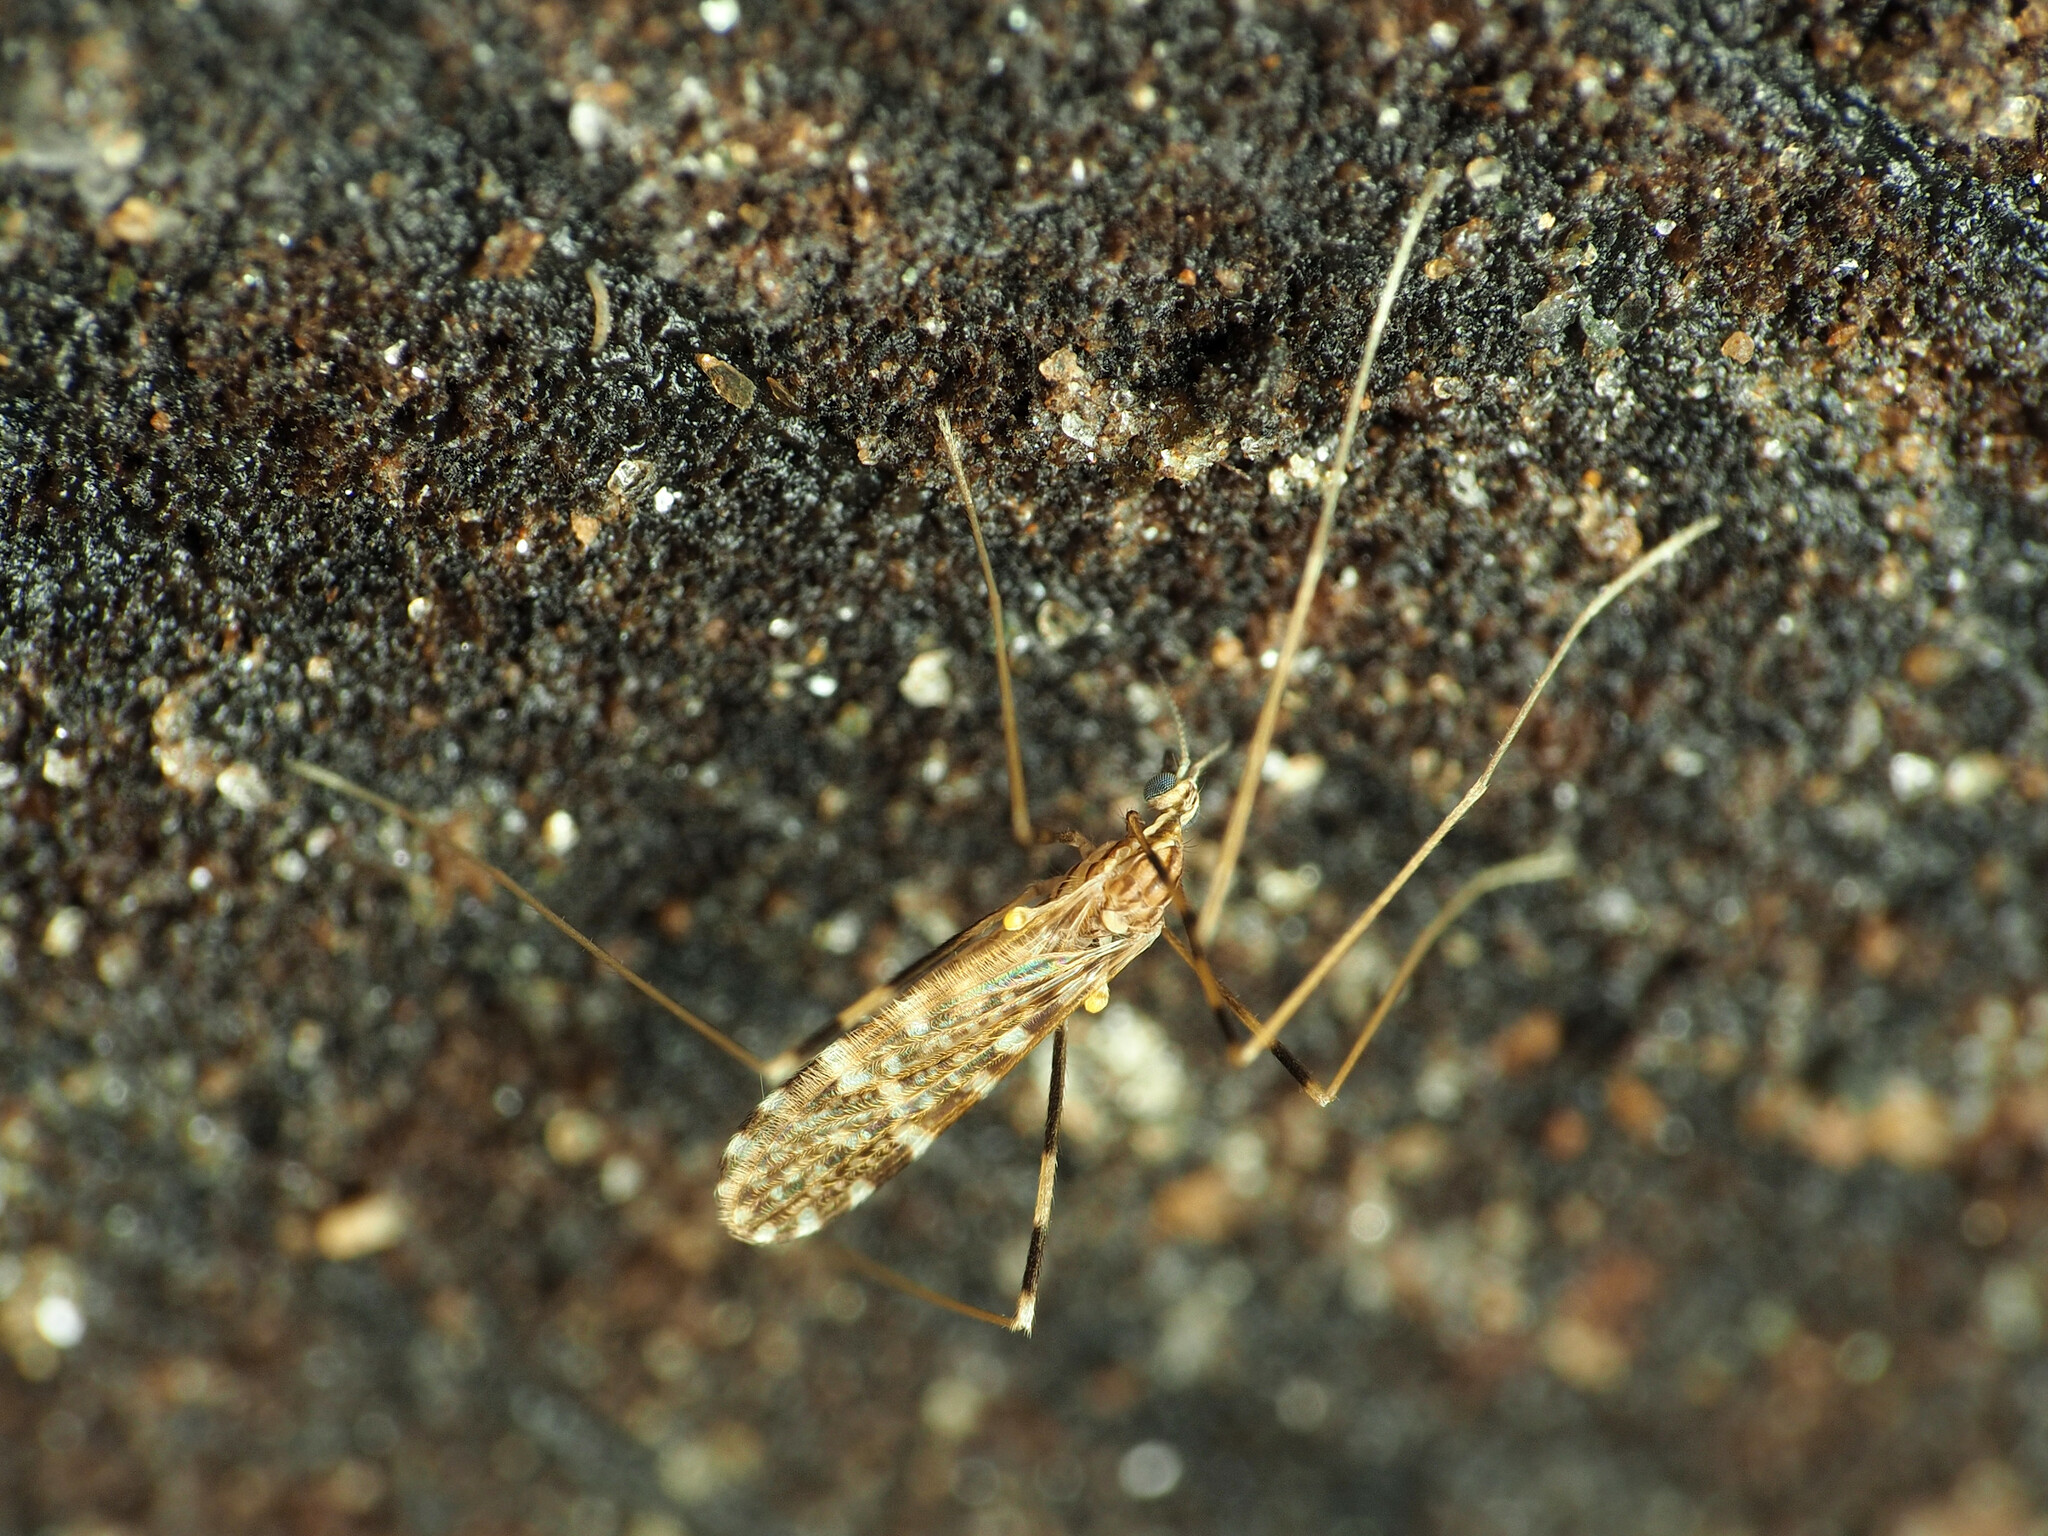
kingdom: Animalia
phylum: Arthropoda
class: Insecta
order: Diptera
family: Limoniidae
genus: Erioptera
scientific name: Erioptera caliptera
